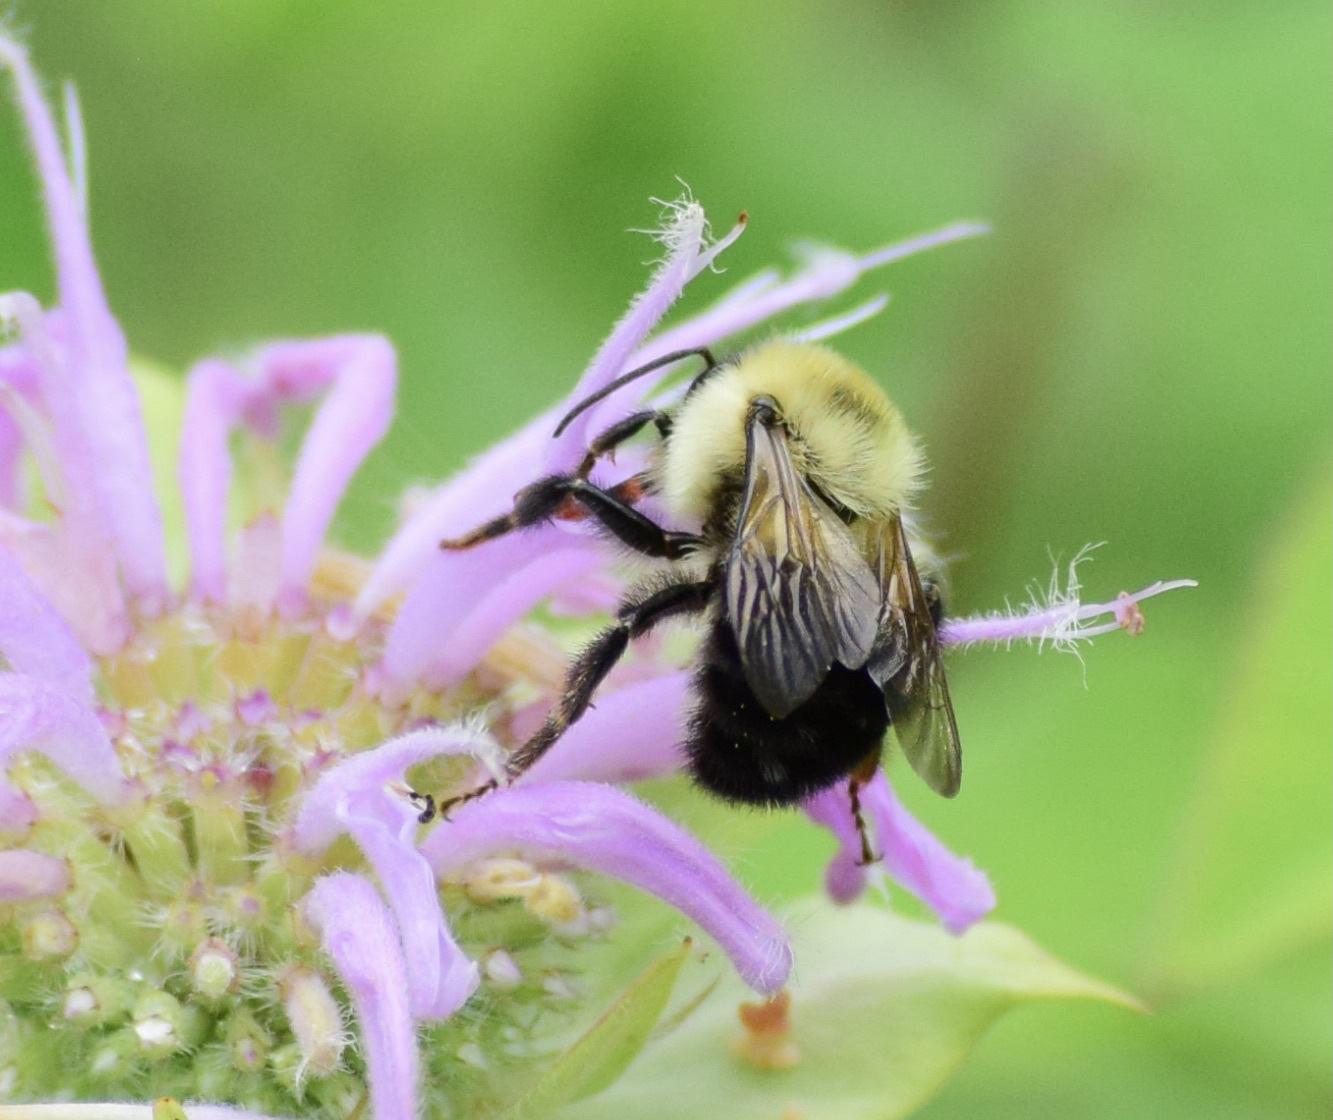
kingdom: Animalia
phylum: Arthropoda
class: Insecta
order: Hymenoptera
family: Apidae
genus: Bombus
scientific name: Bombus bimaculatus
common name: Two-spotted bumble bee
